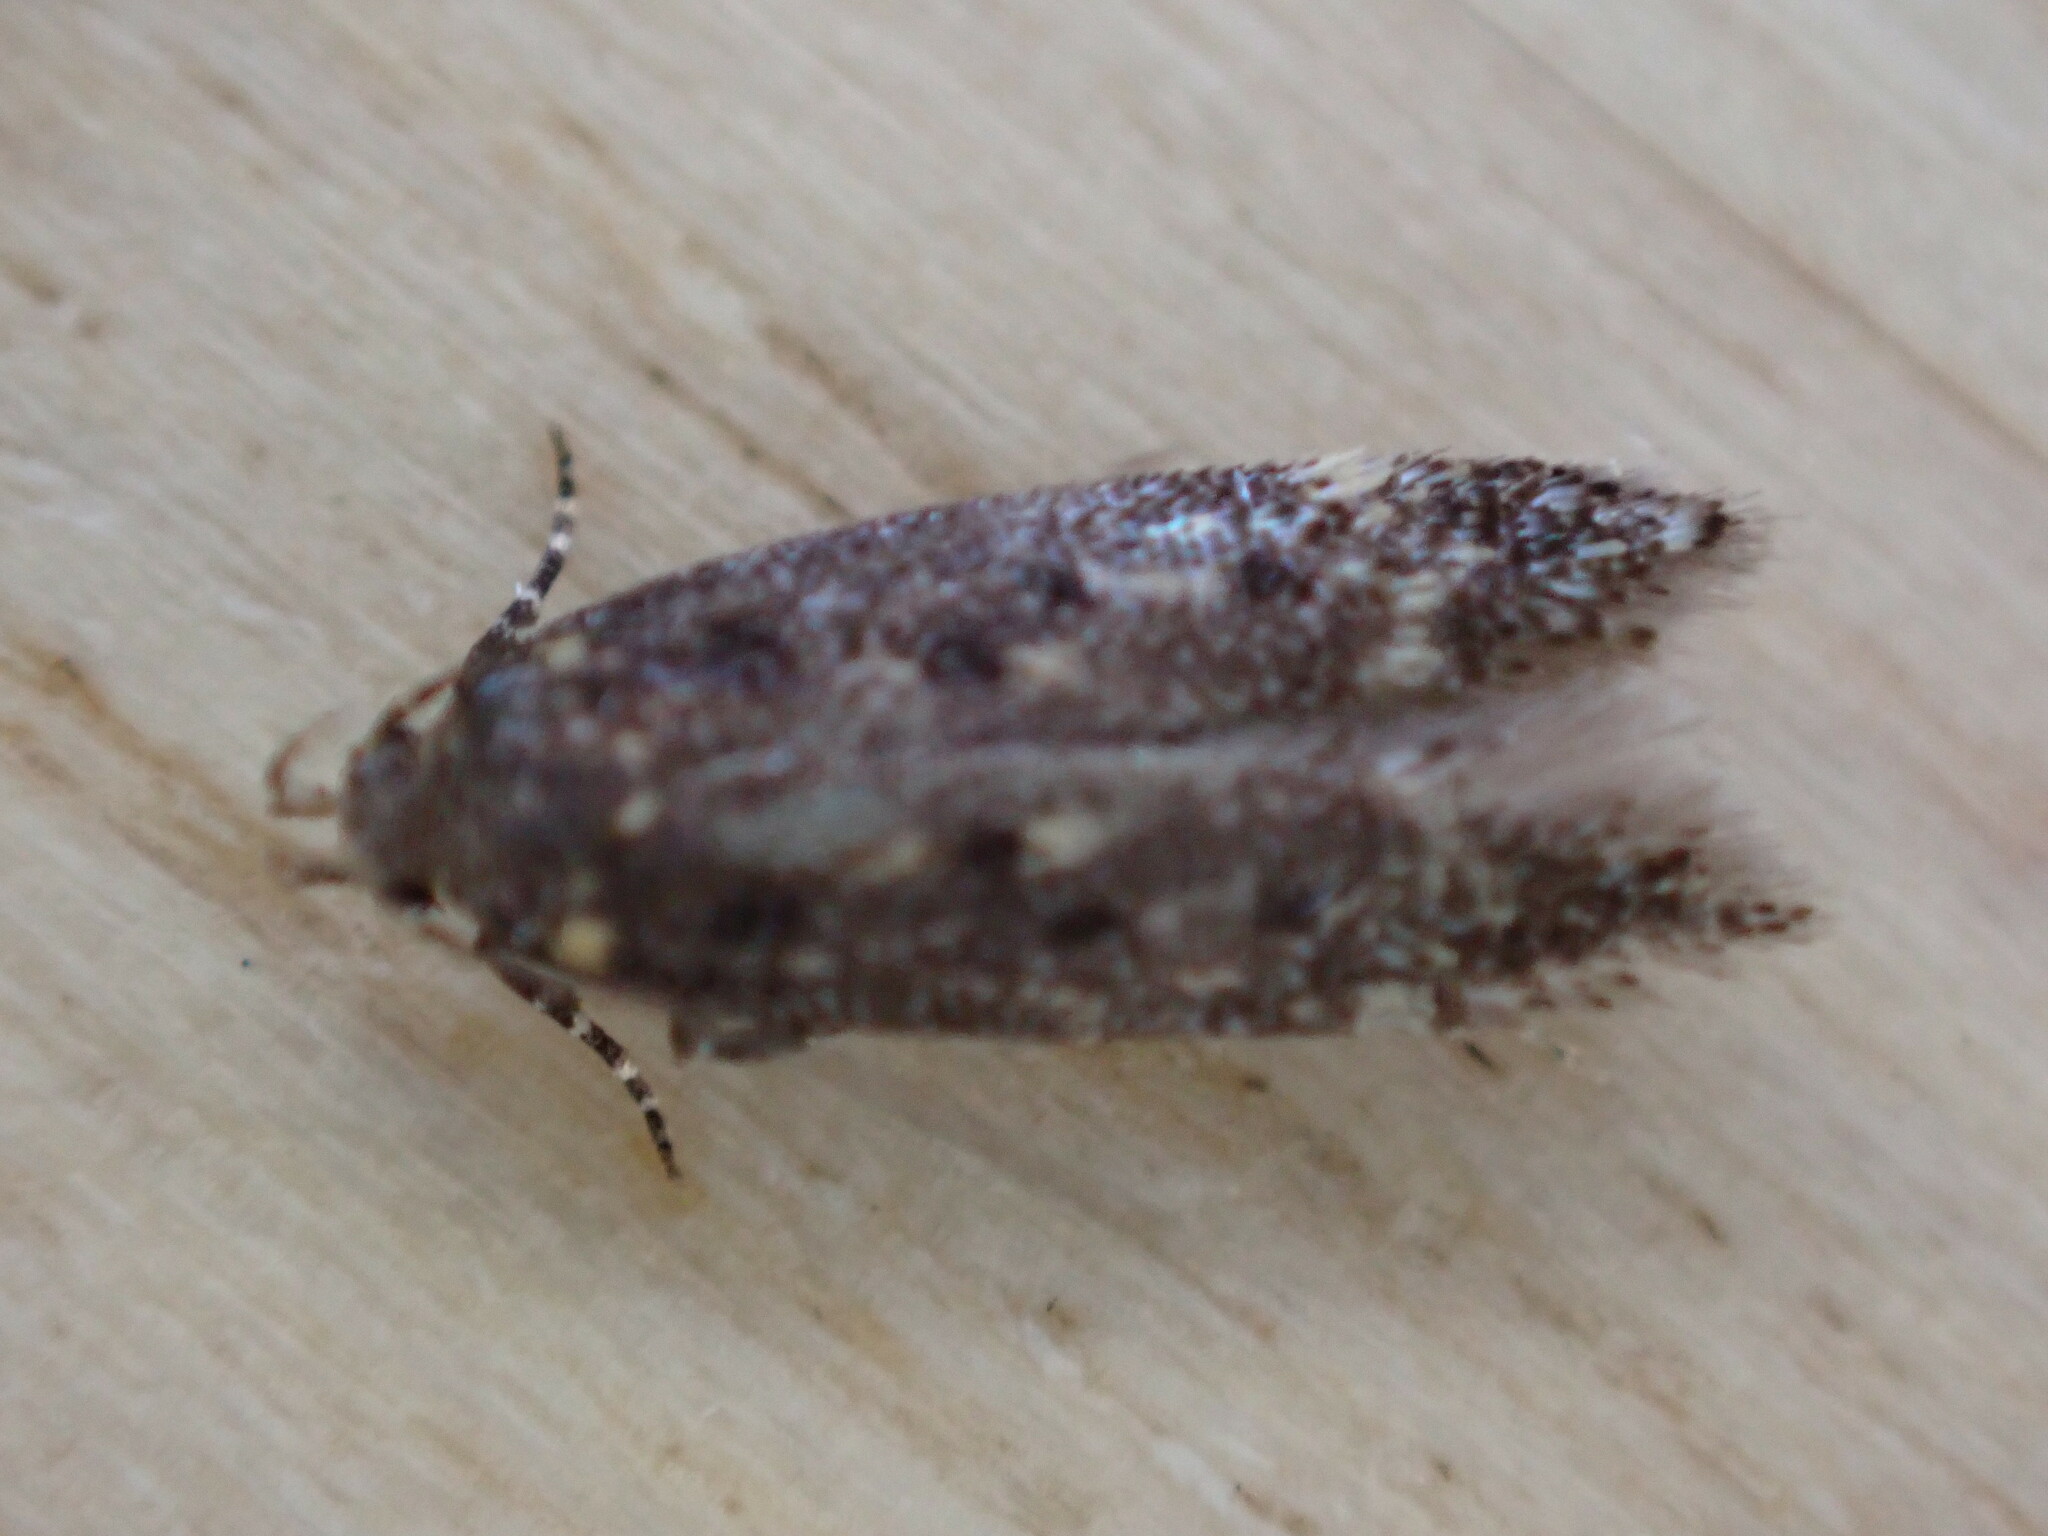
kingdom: Animalia
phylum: Arthropoda
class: Insecta
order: Lepidoptera
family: Gelechiidae
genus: Bryotropha
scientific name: Bryotropha affinis
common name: Dark groundling
